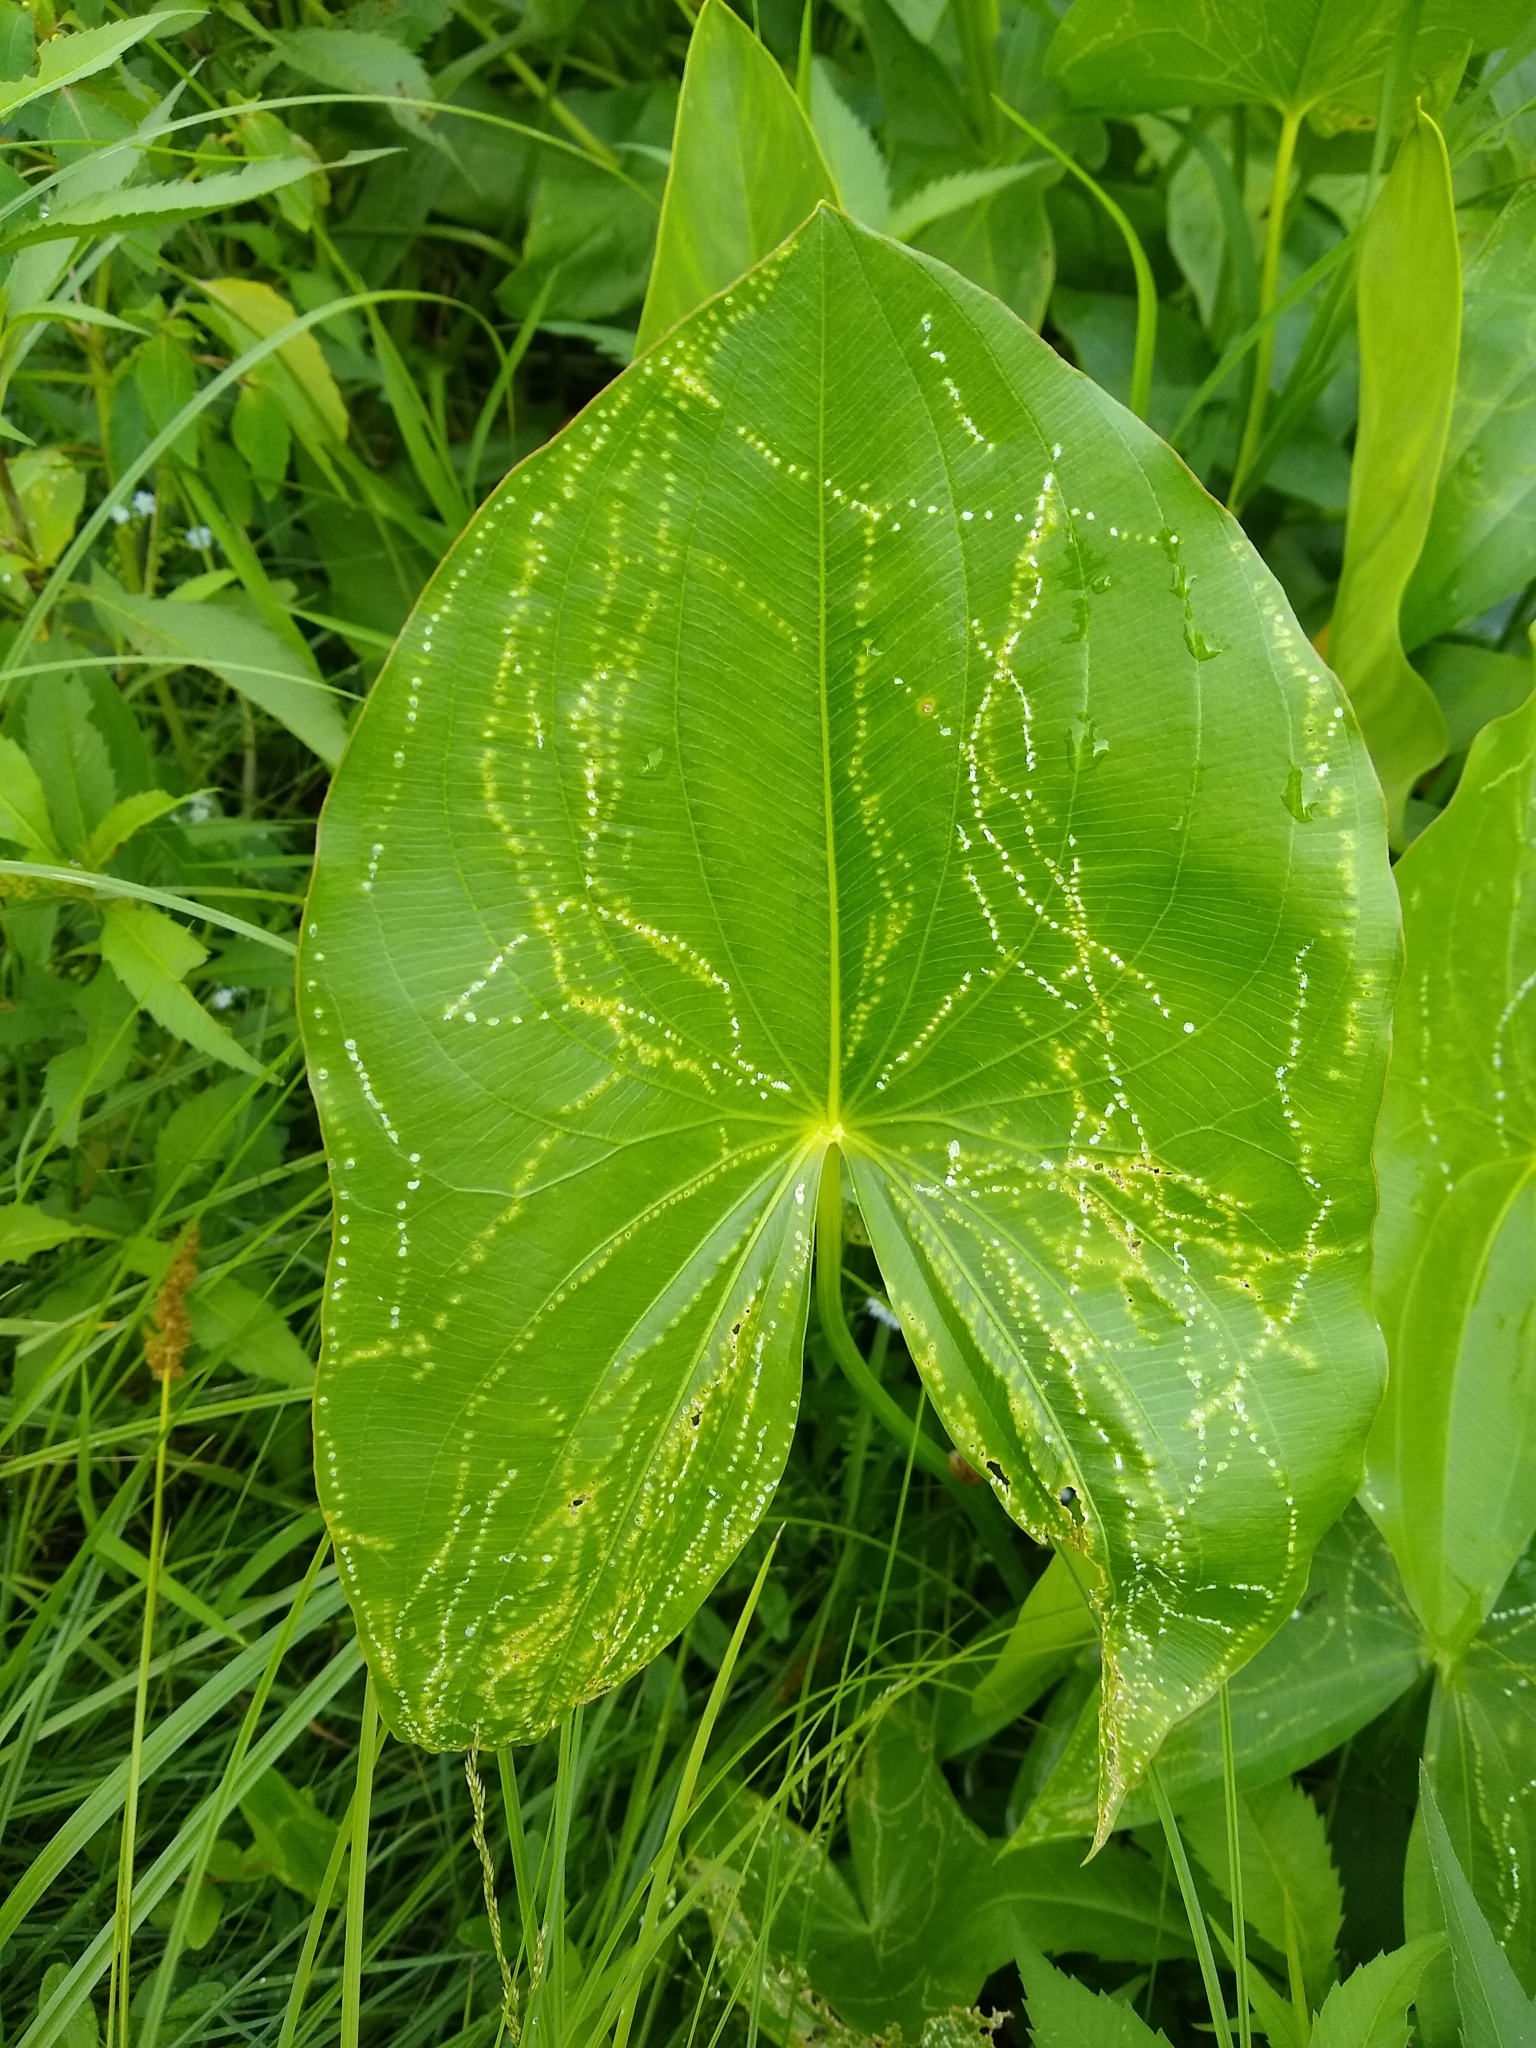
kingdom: Plantae
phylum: Tracheophyta
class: Liliopsida
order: Alismatales
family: Alismataceae
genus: Sagittaria
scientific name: Sagittaria latifolia
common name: Duck-potato
